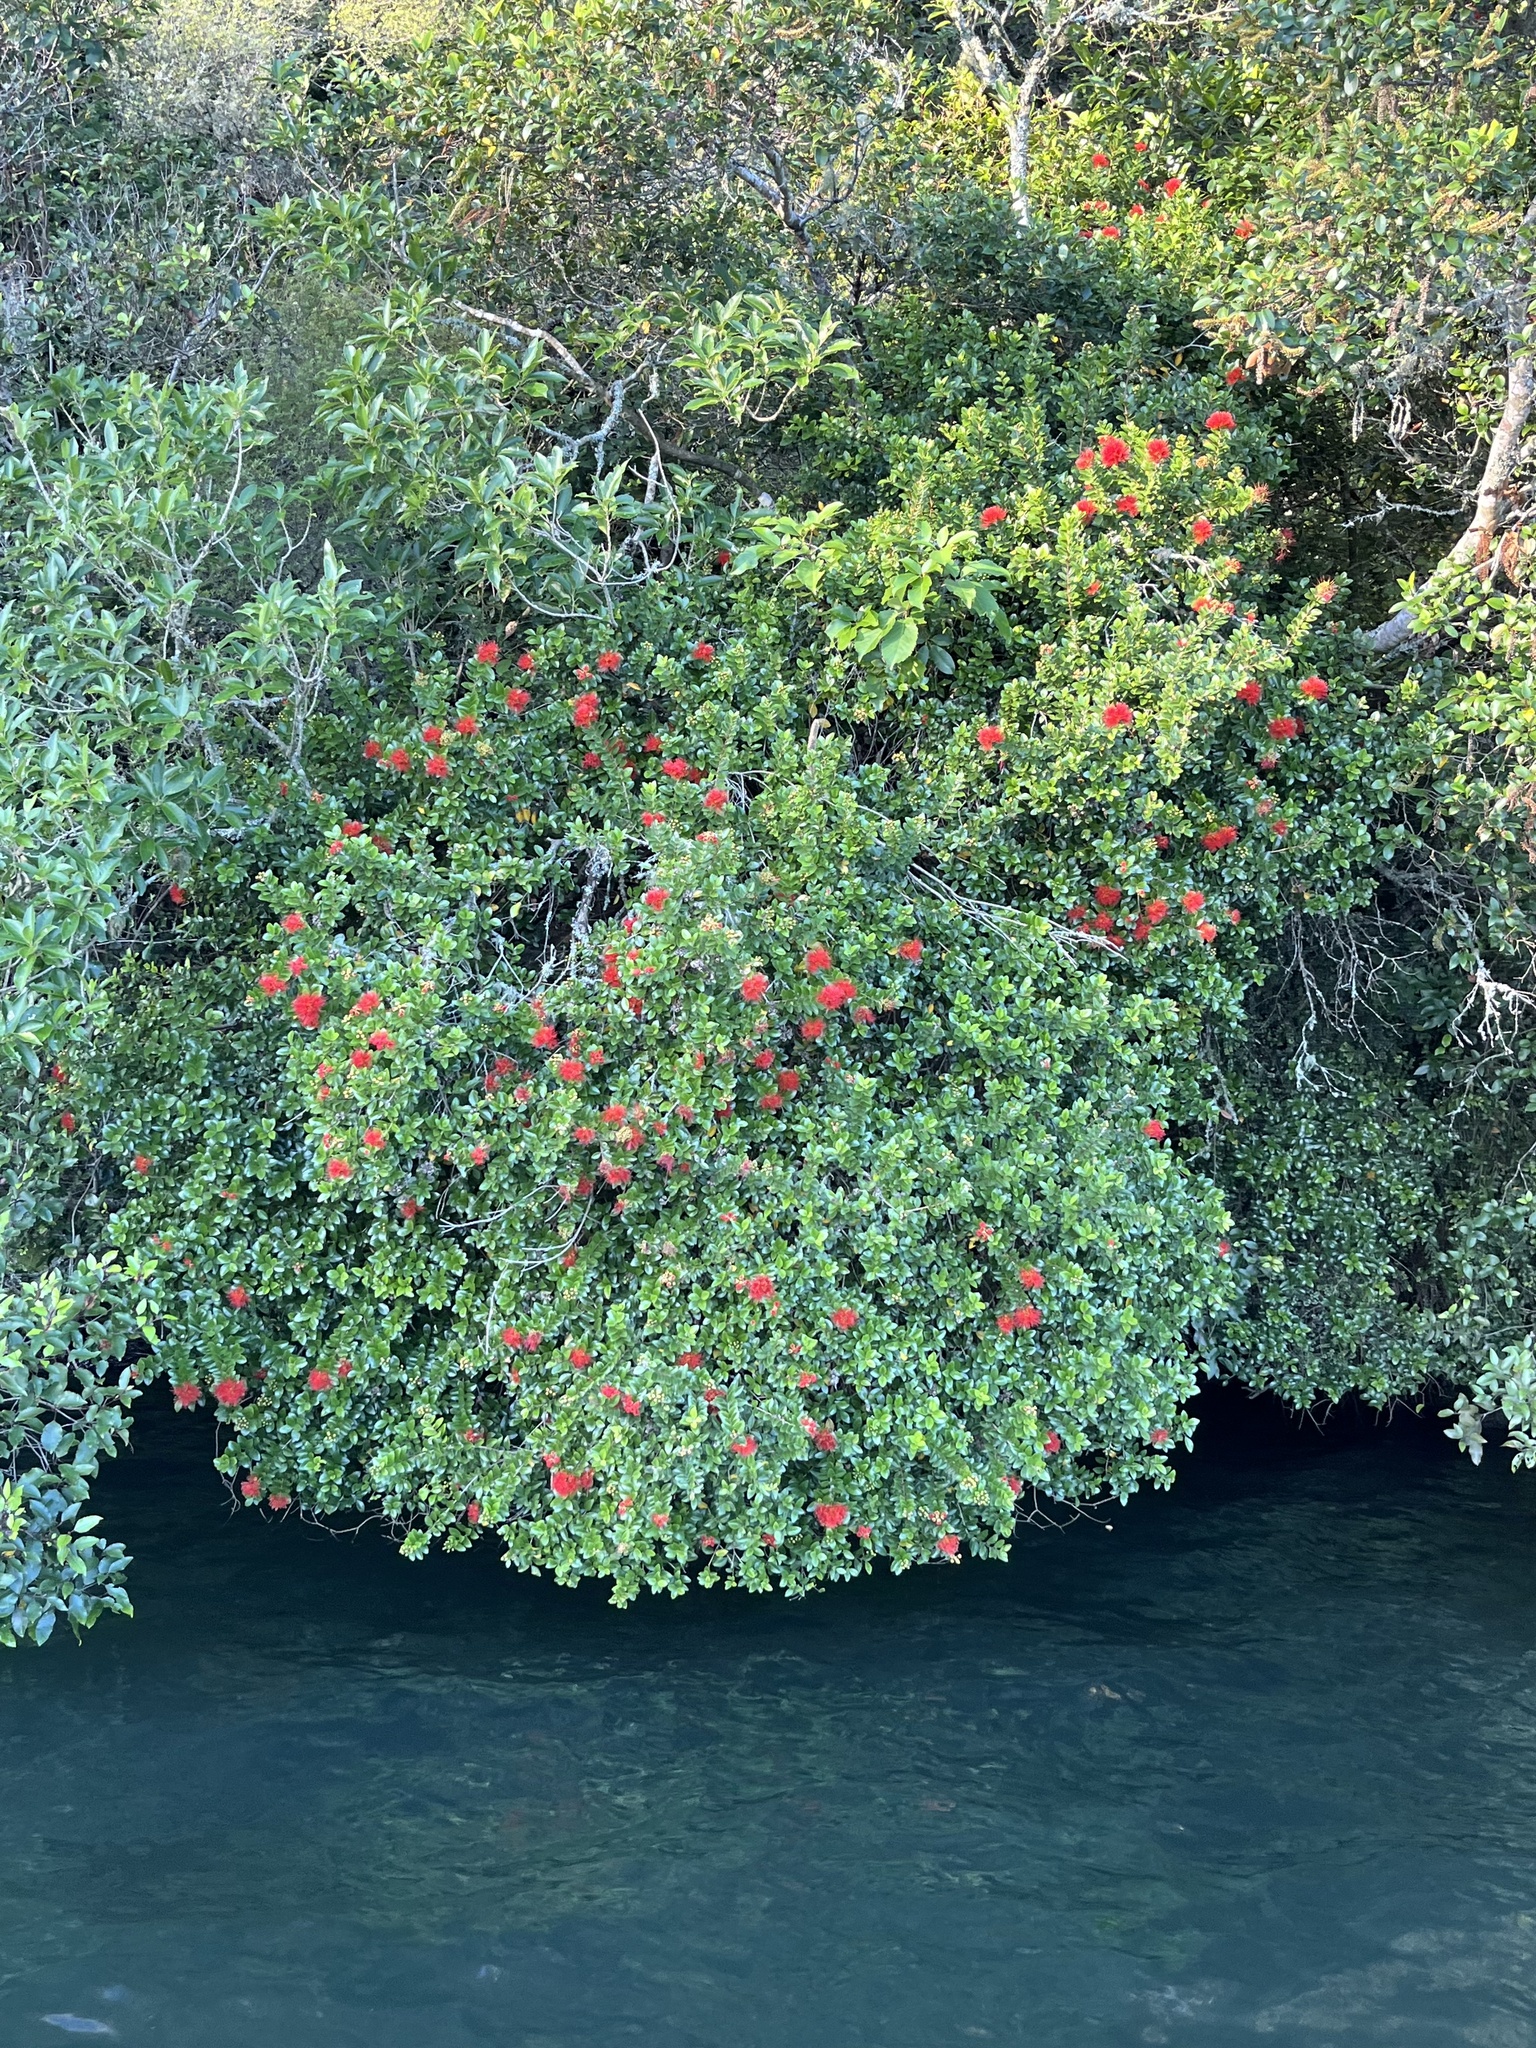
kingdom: Plantae
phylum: Tracheophyta
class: Magnoliopsida
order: Myrtales
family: Myrtaceae
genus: Metrosideros
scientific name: Metrosideros fulgens
